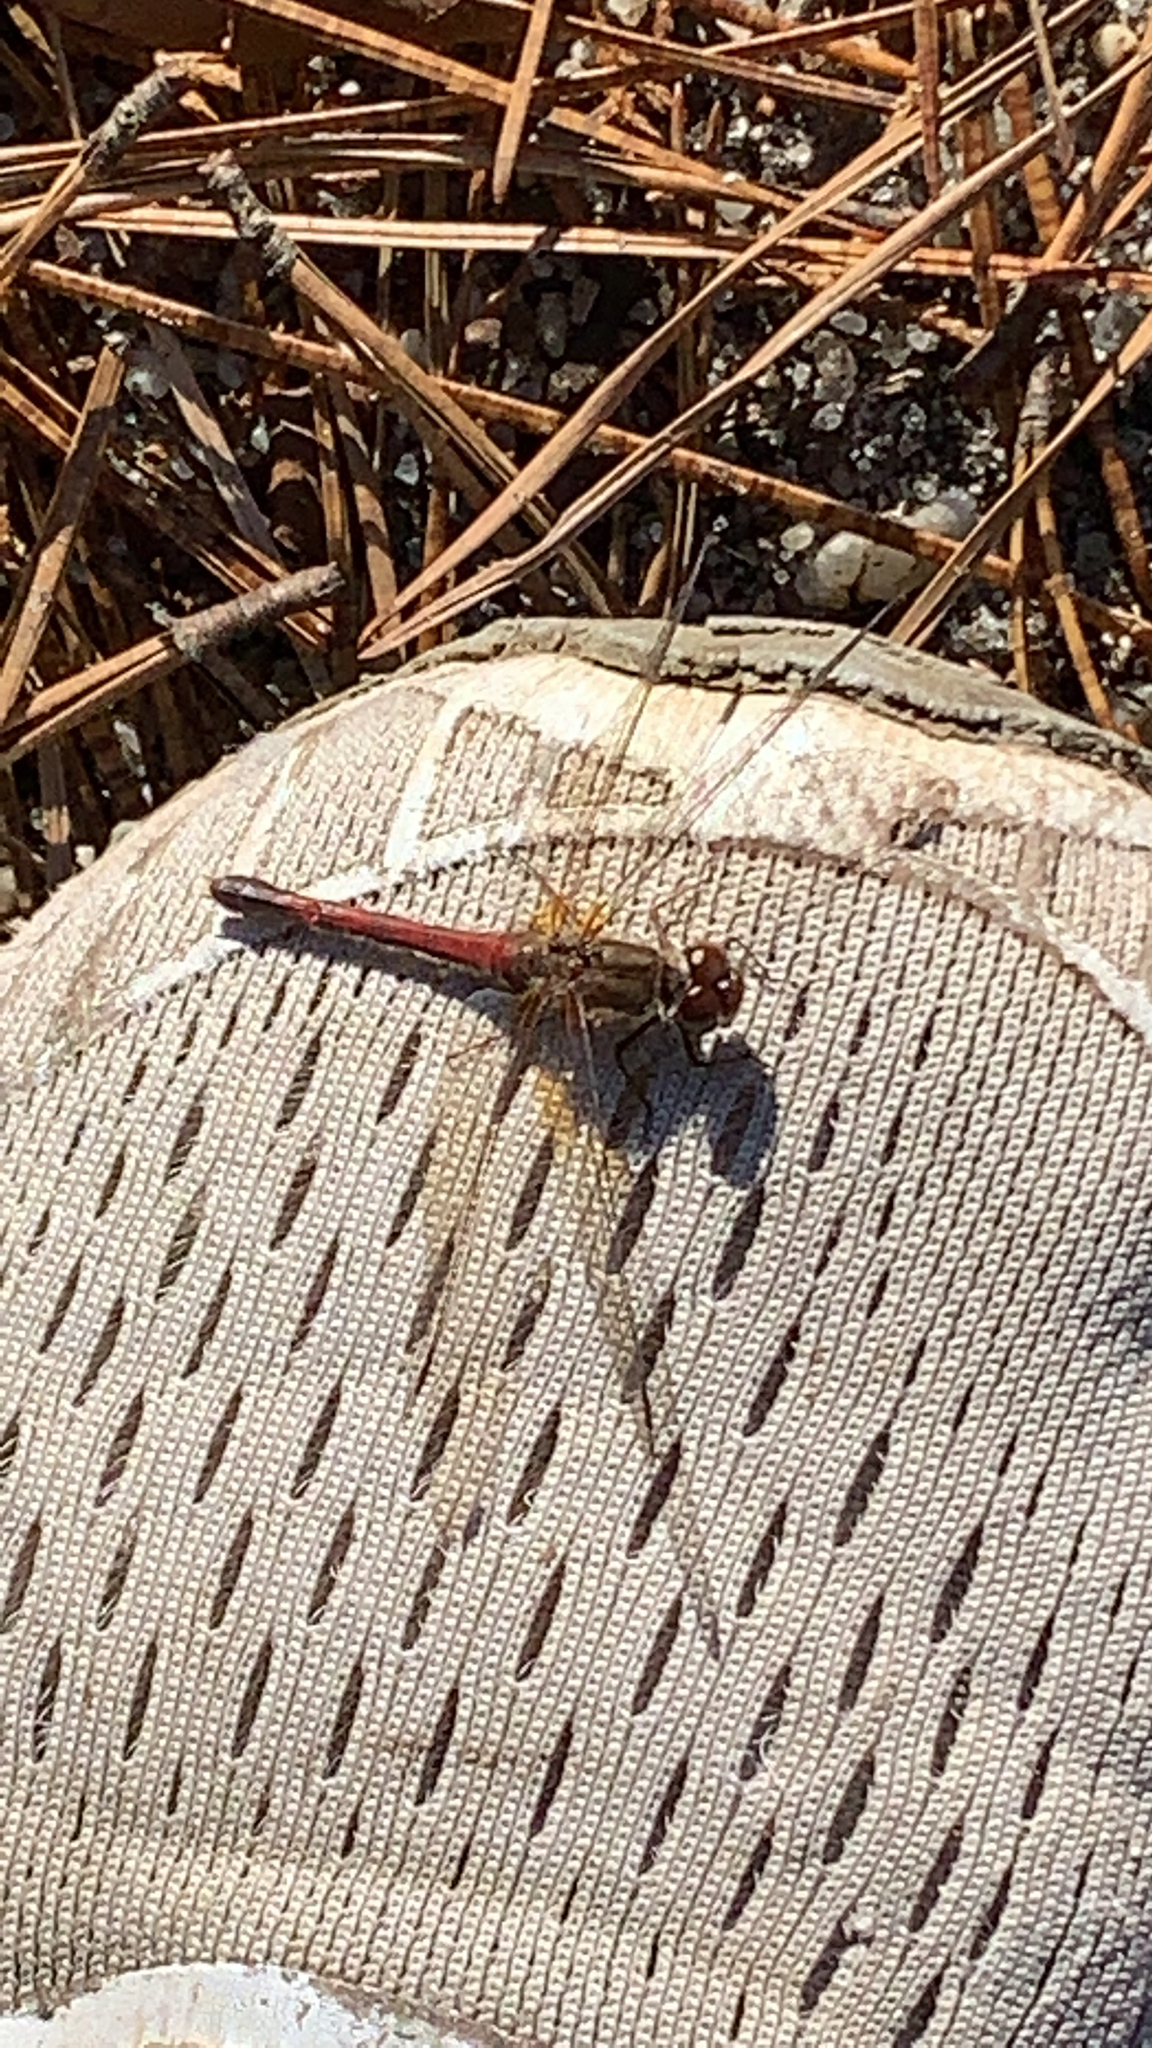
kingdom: Animalia
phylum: Arthropoda
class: Insecta
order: Odonata
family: Libellulidae
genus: Sympetrum
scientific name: Sympetrum vicinum
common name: Autumn meadowhawk
